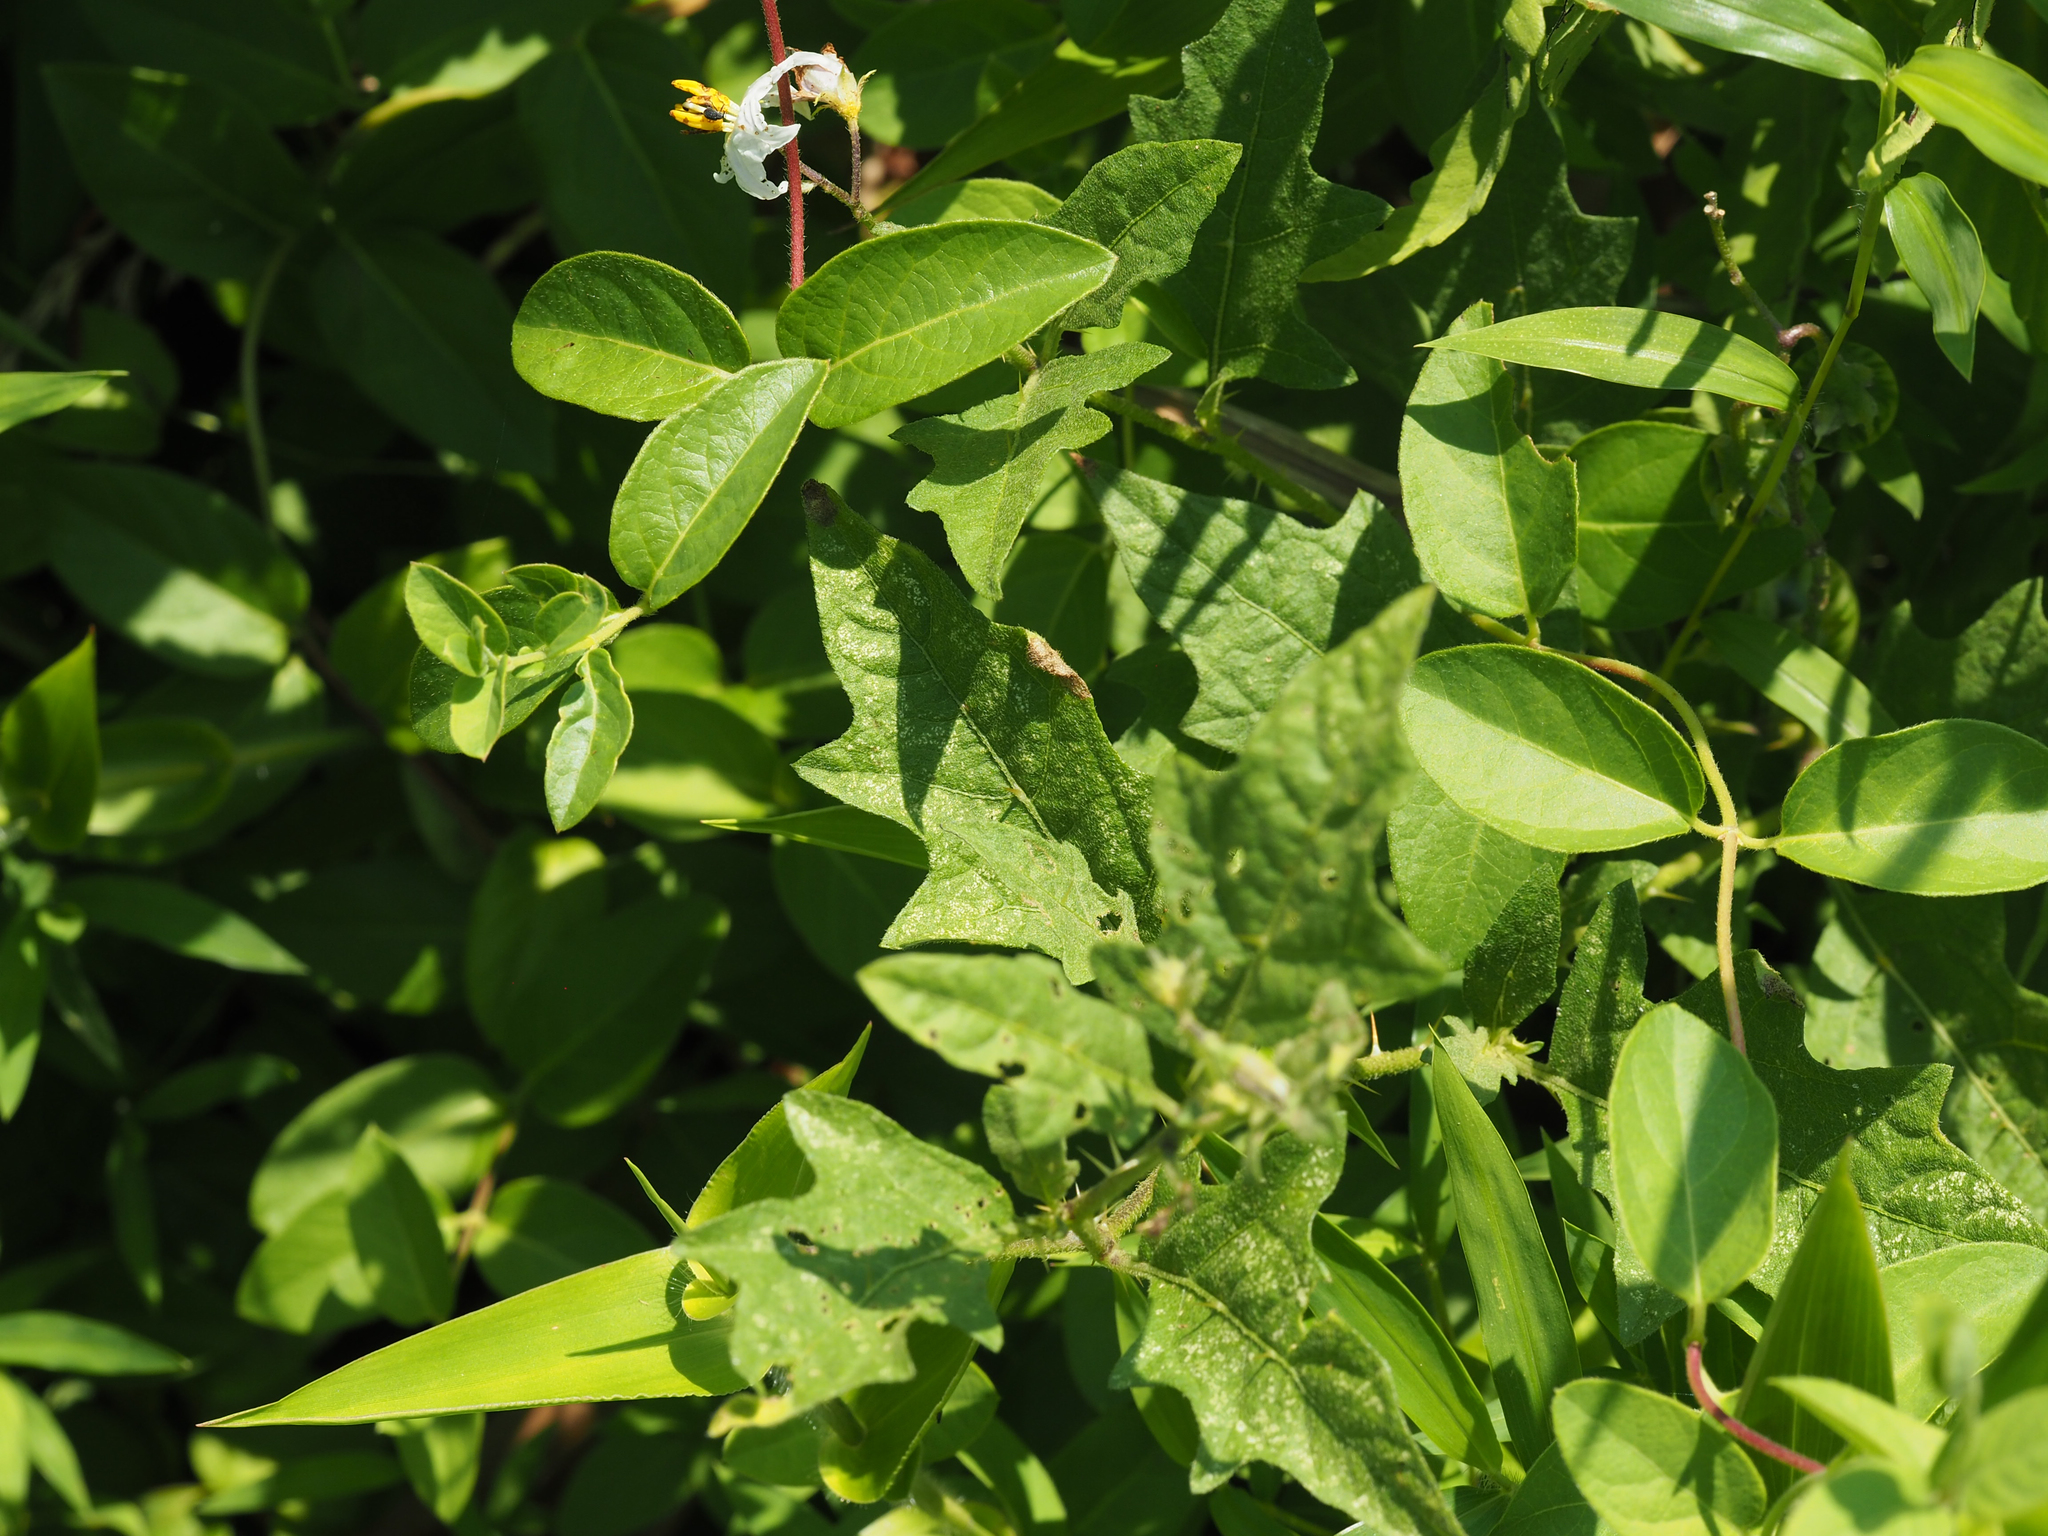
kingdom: Plantae
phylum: Tracheophyta
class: Magnoliopsida
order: Solanales
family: Solanaceae
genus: Solanum
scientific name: Solanum carolinense
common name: Horse-nettle
